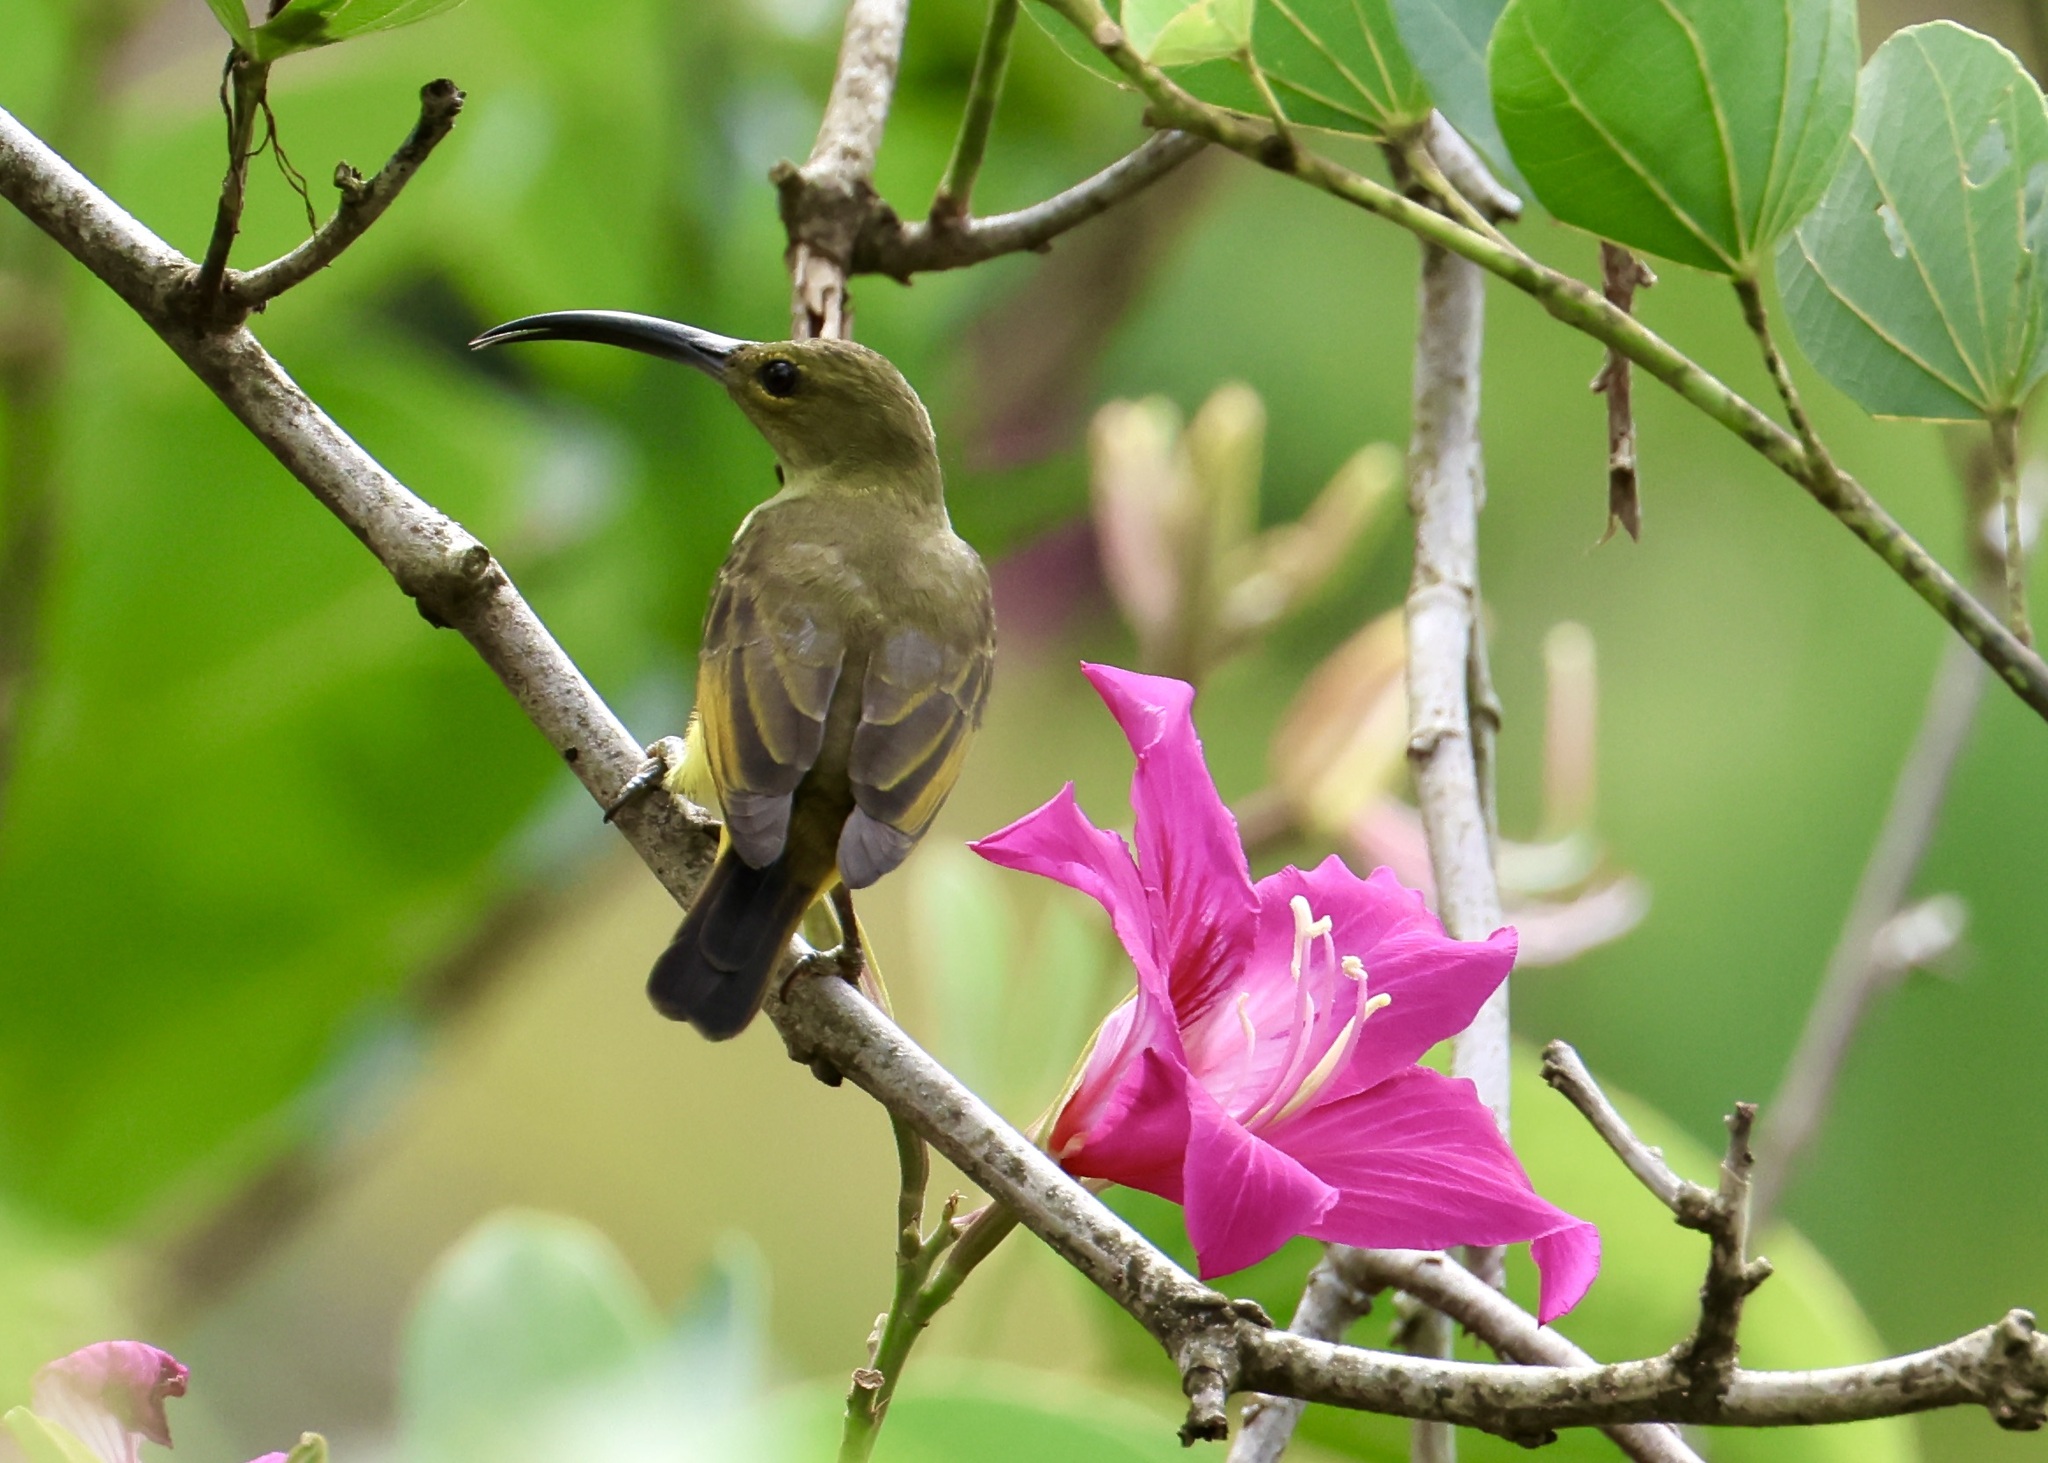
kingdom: Animalia
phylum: Chordata
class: Aves
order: Passeriformes
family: Nectariniidae
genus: Arachnothera
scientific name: Arachnothera crassirostris
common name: Thick-billed spiderhunter
